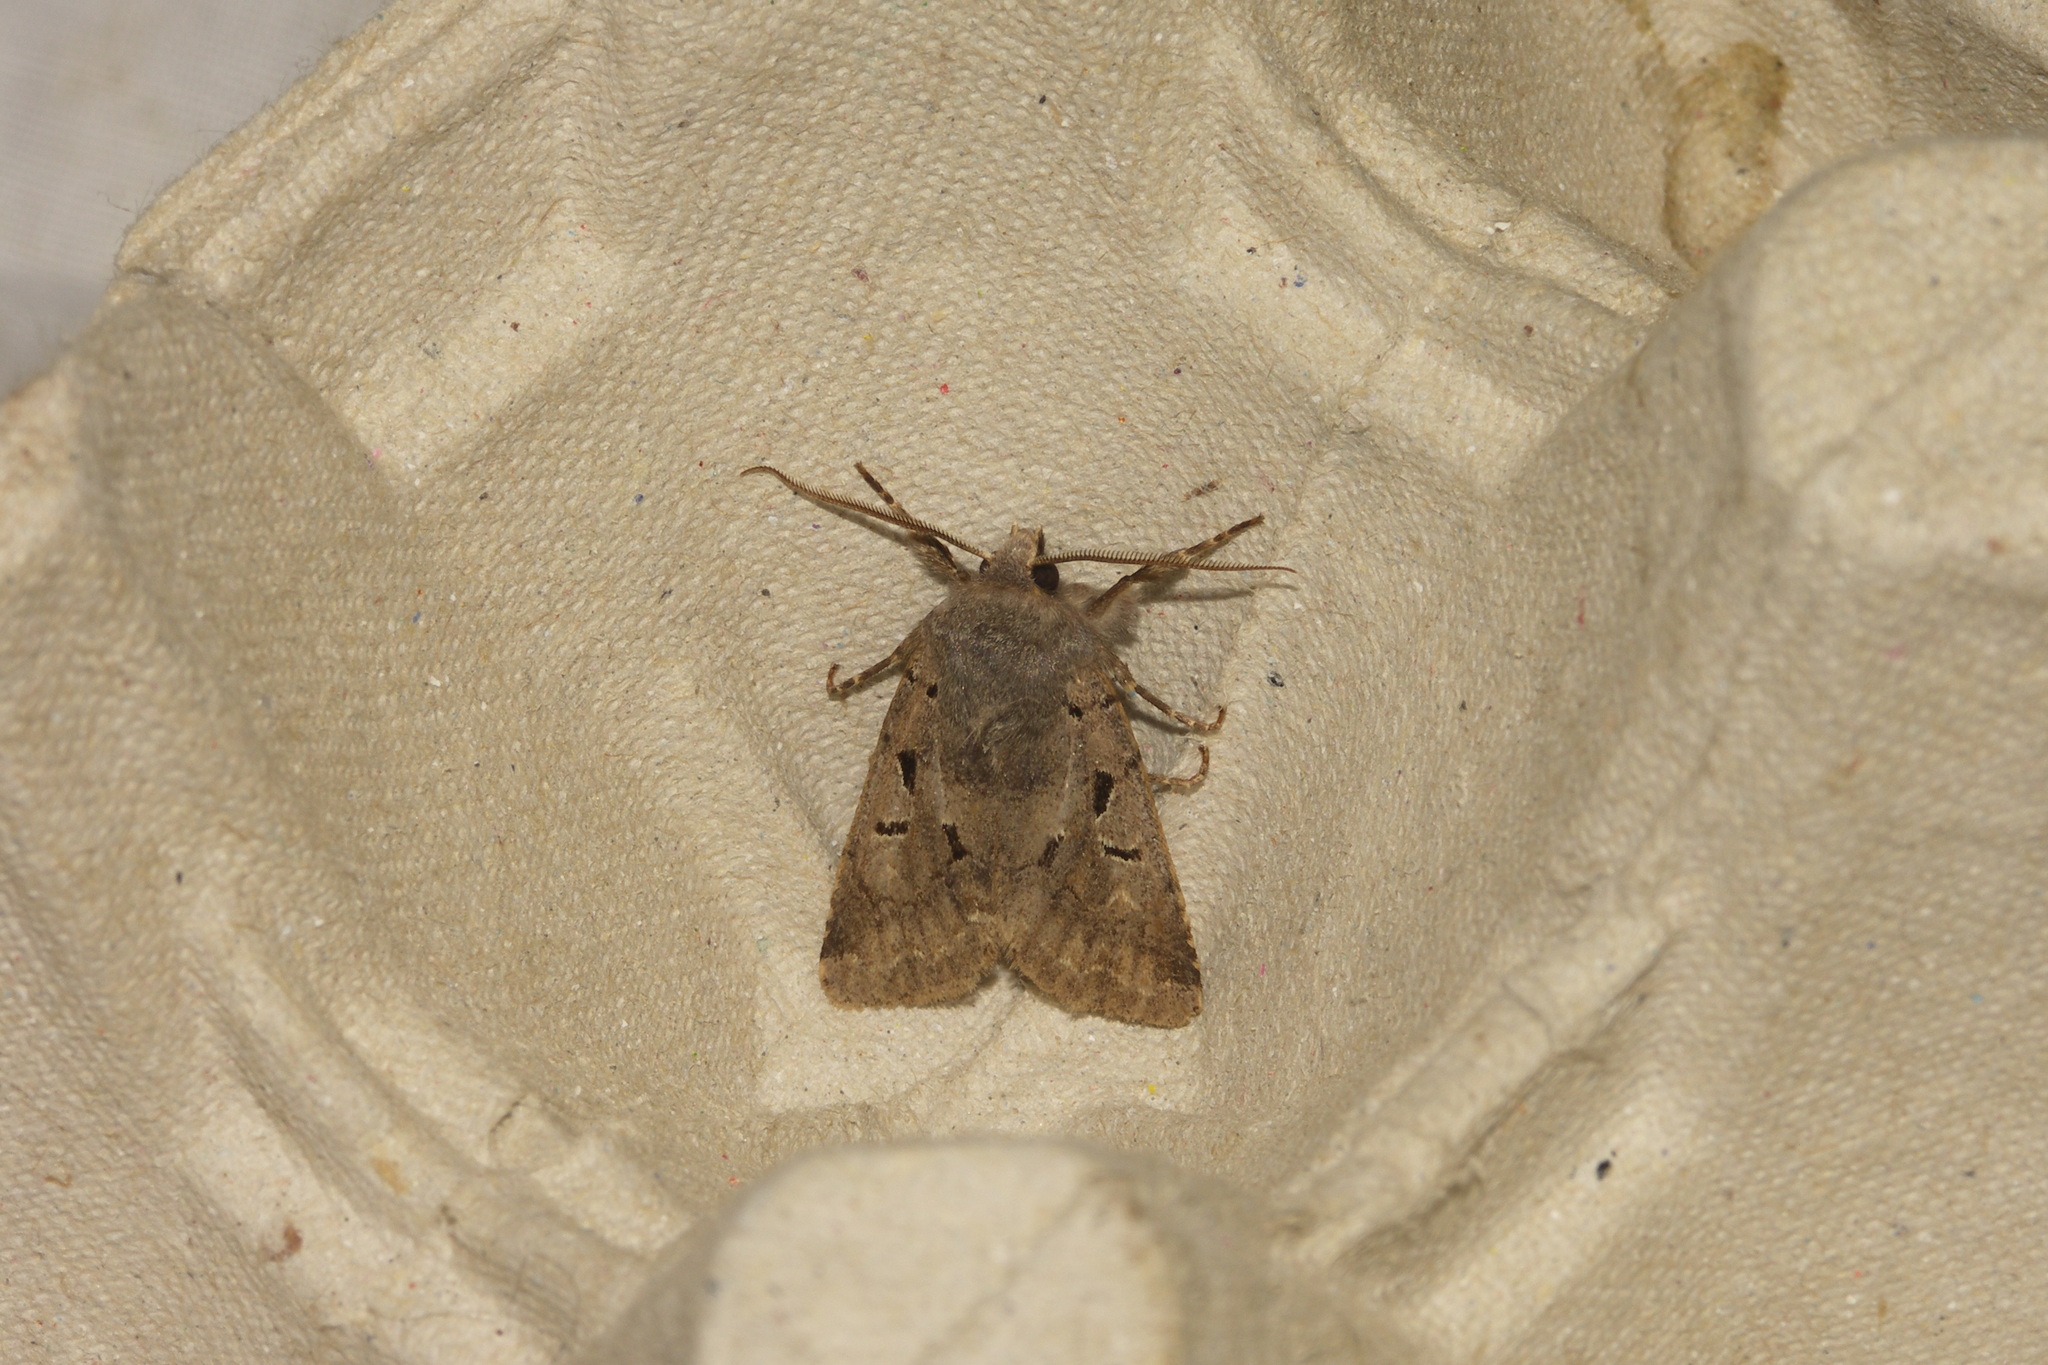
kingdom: Animalia
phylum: Arthropoda
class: Insecta
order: Lepidoptera
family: Noctuidae
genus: Orthosia
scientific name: Orthosia gothica
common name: Hebrew character
